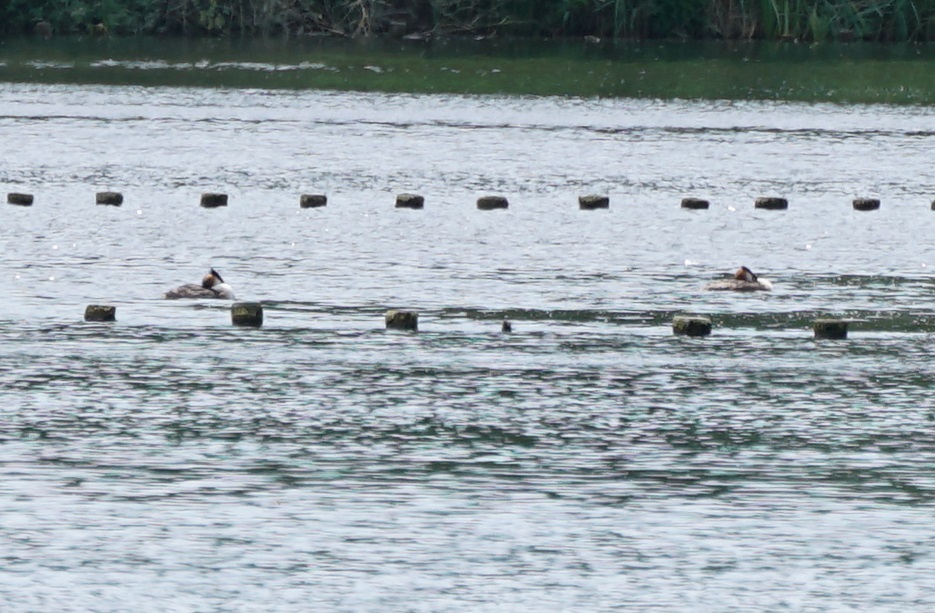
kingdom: Animalia
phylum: Chordata
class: Aves
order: Podicipediformes
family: Podicipedidae
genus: Podiceps
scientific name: Podiceps cristatus
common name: Great crested grebe
